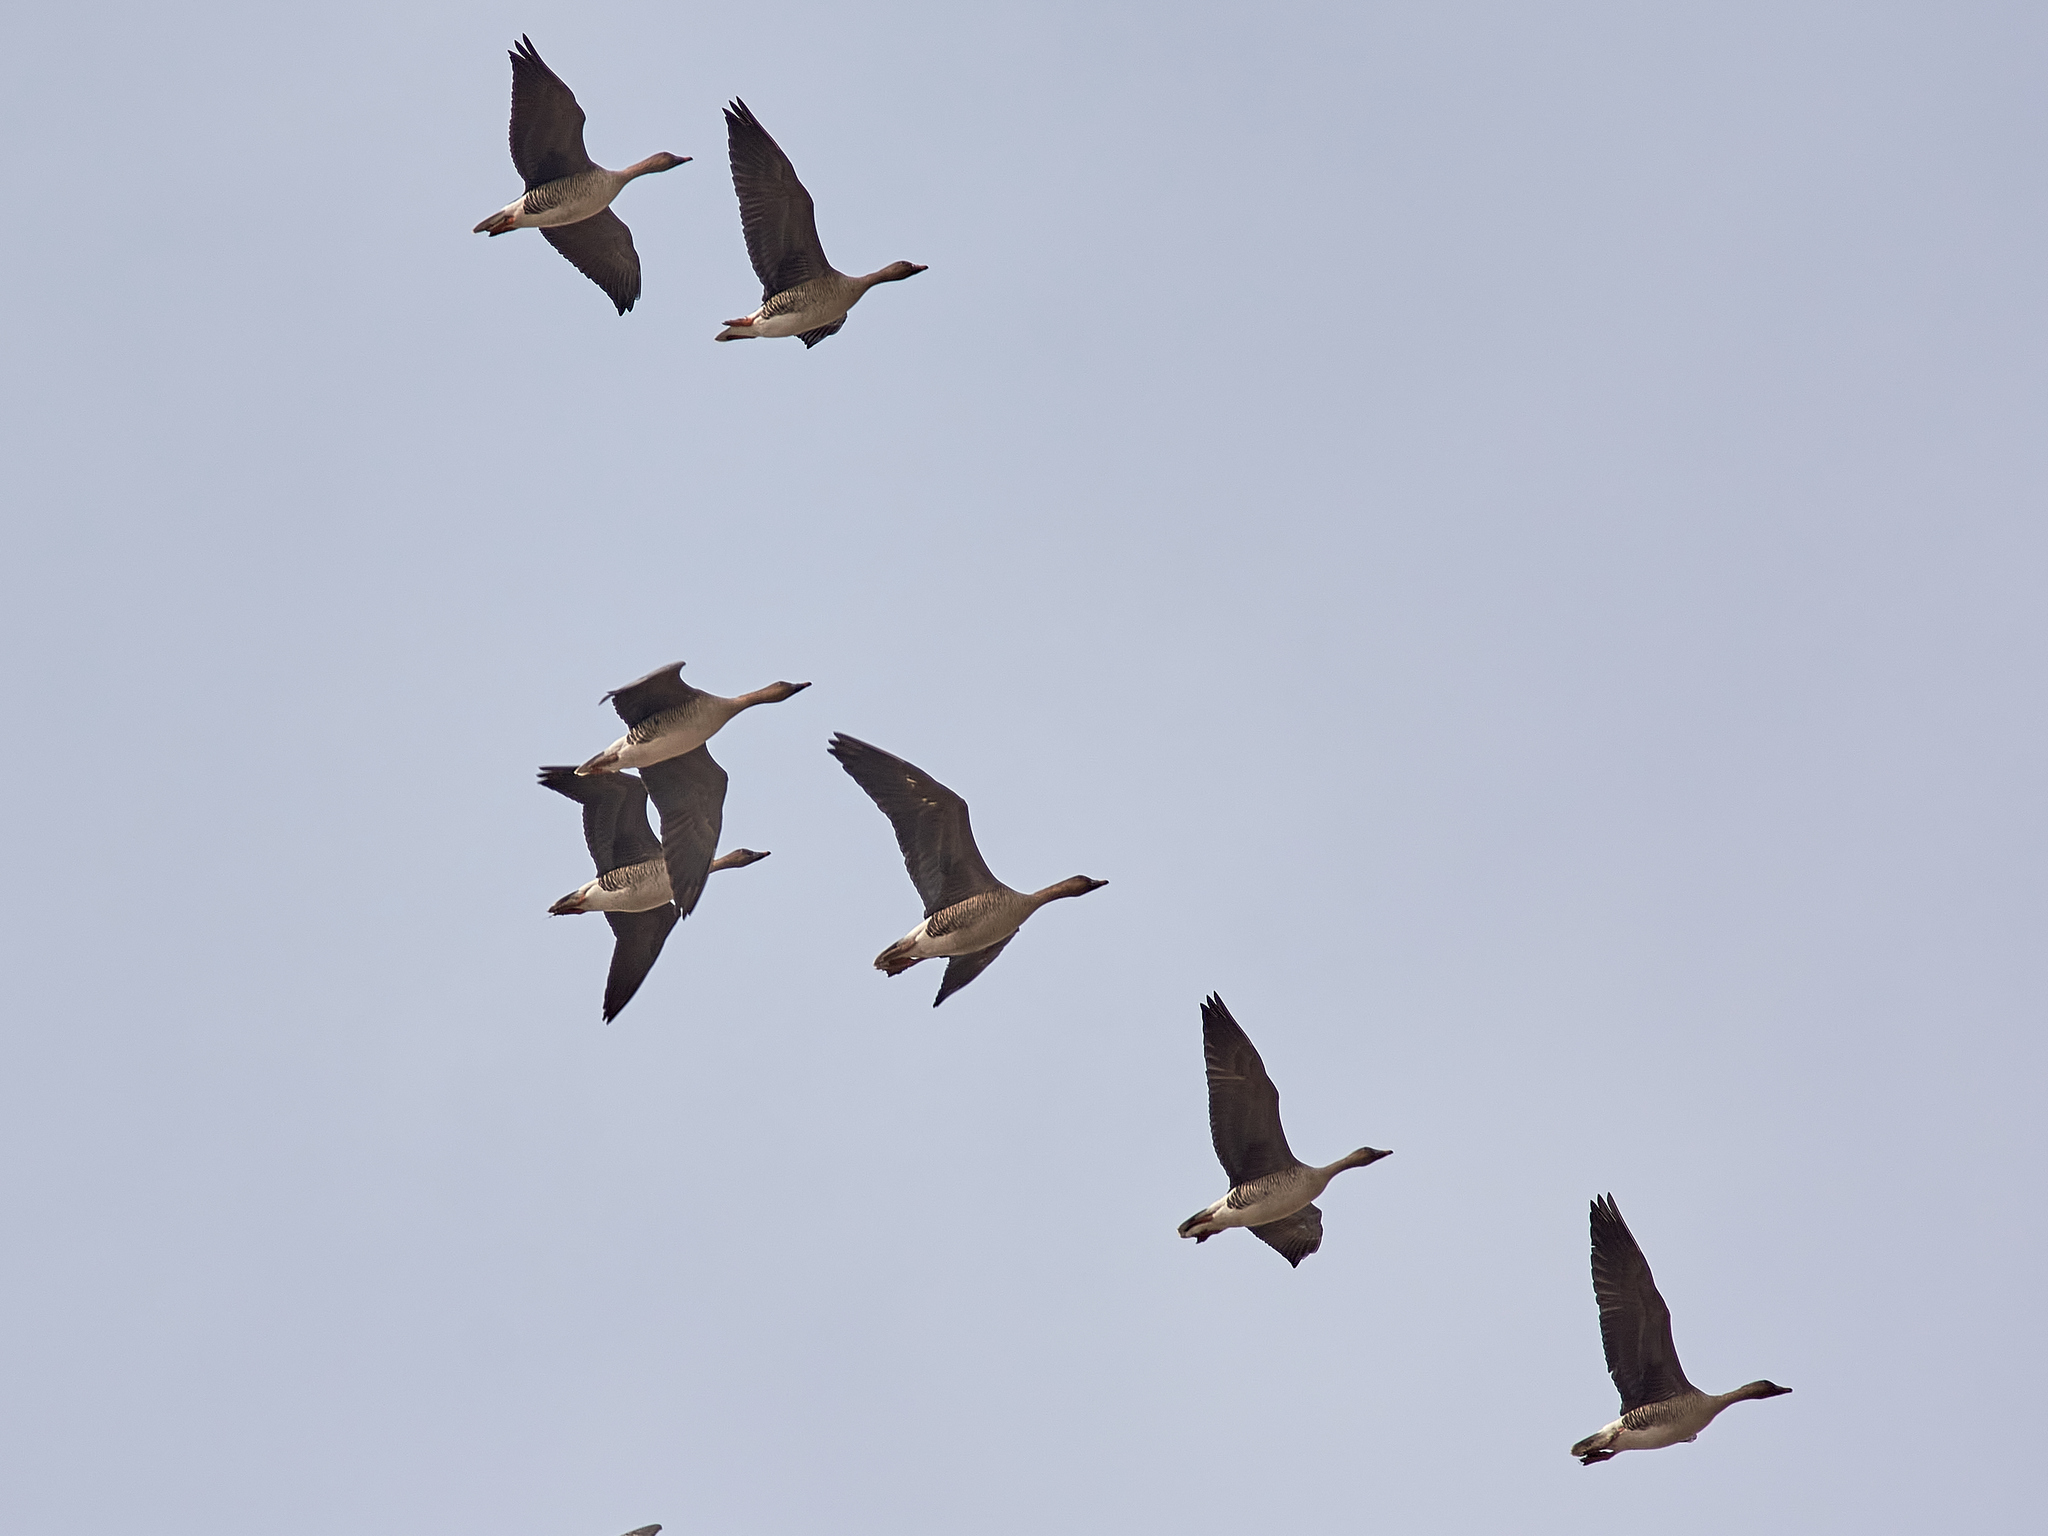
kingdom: Animalia
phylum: Chordata
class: Aves
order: Anseriformes
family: Anatidae
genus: Anser
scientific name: Anser fabalis
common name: Bean goose
